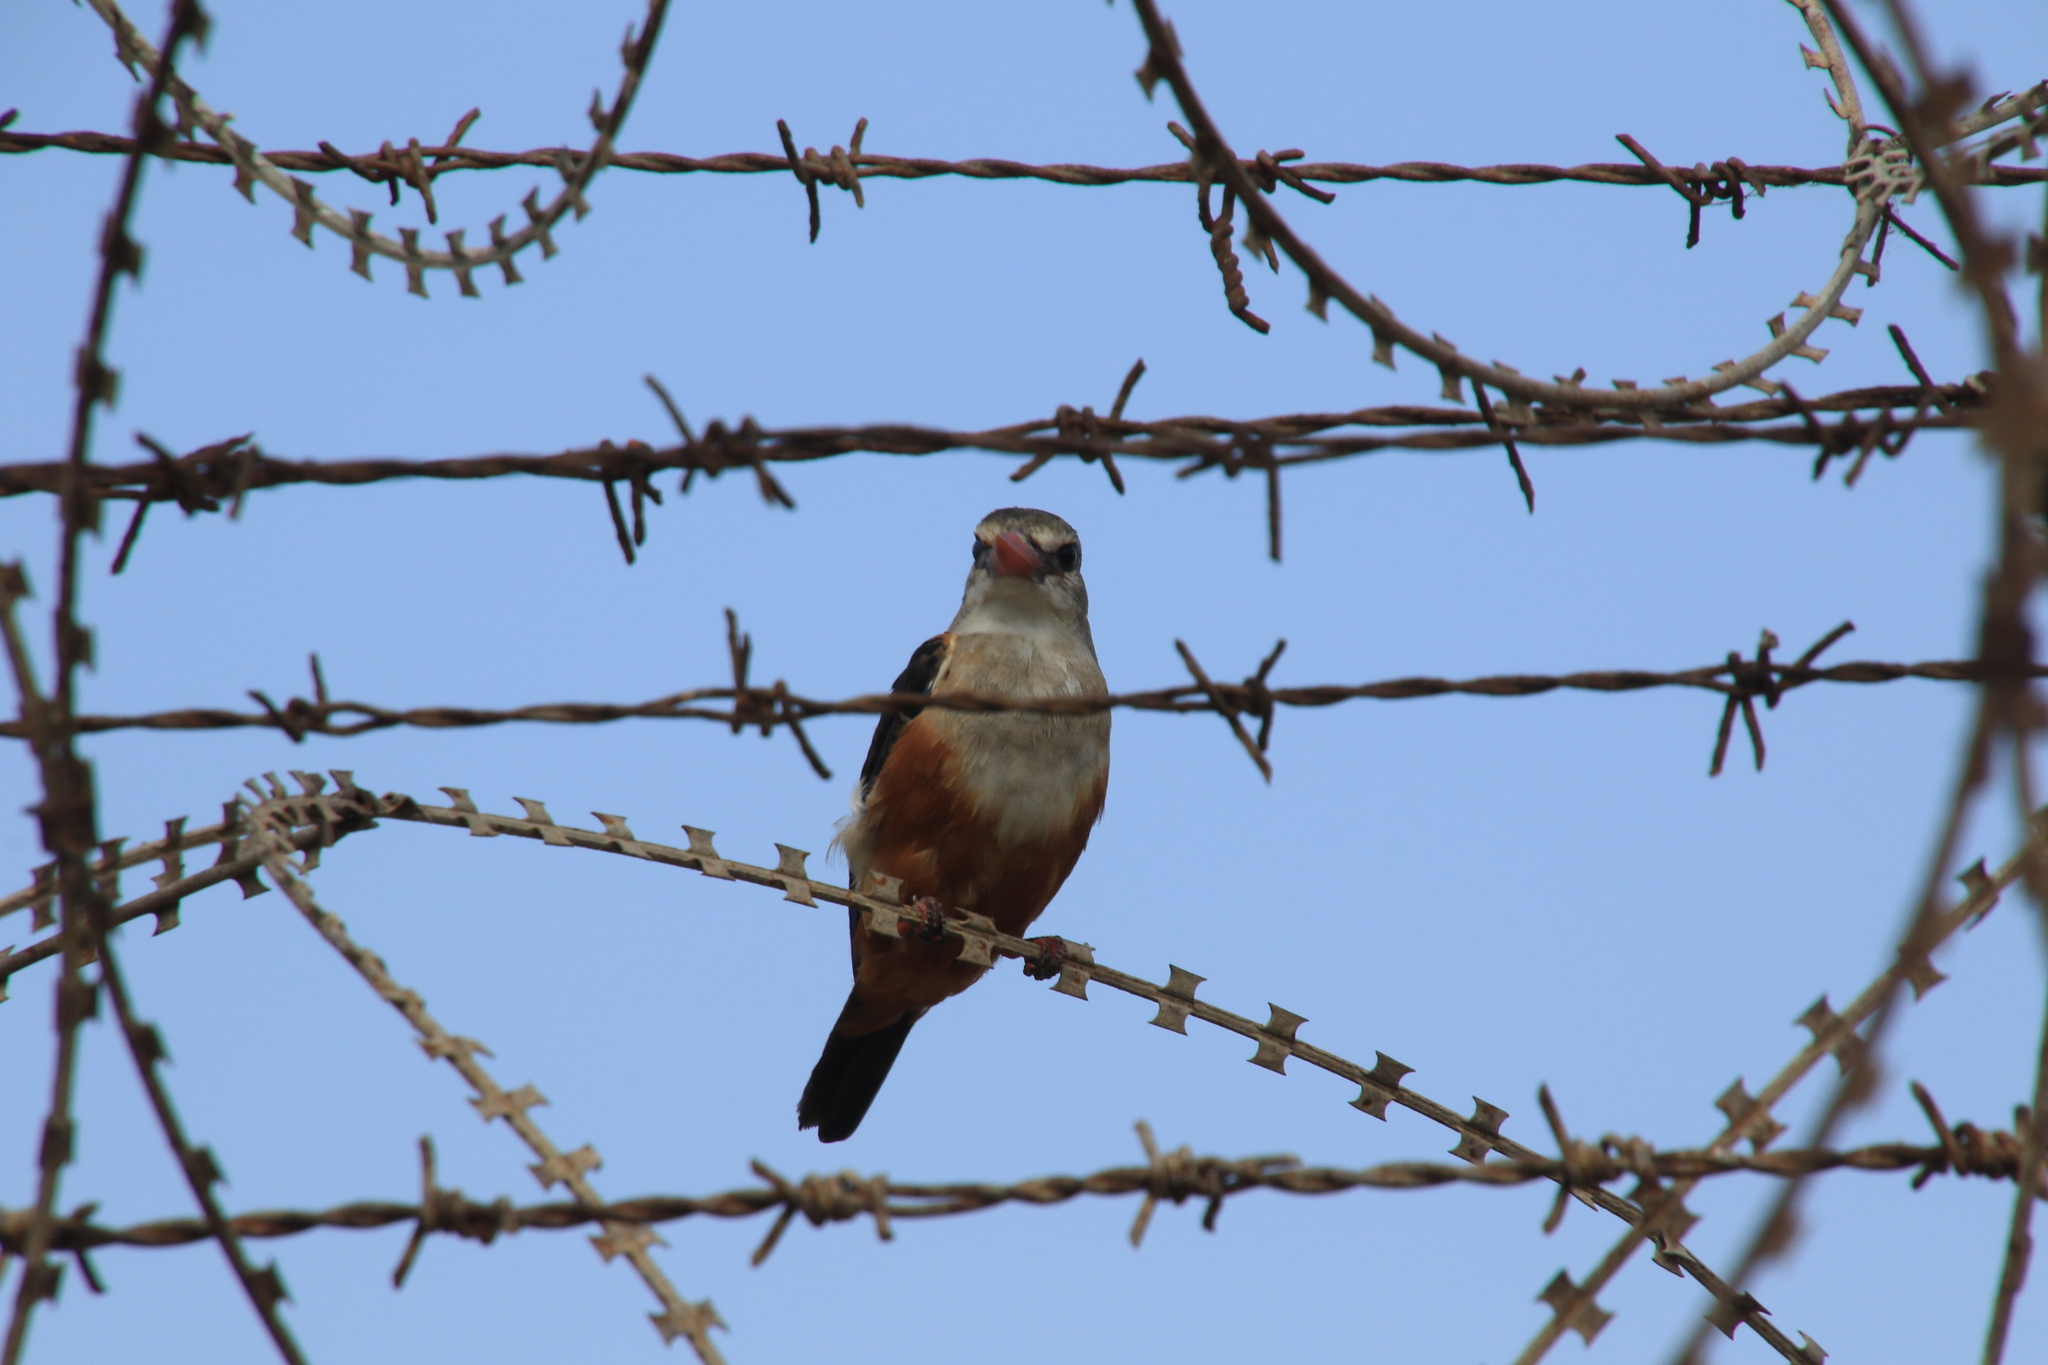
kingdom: Animalia
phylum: Chordata
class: Aves
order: Coraciiformes
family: Alcedinidae
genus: Halcyon
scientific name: Halcyon leucocephala
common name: Grey-headed kingfisher
